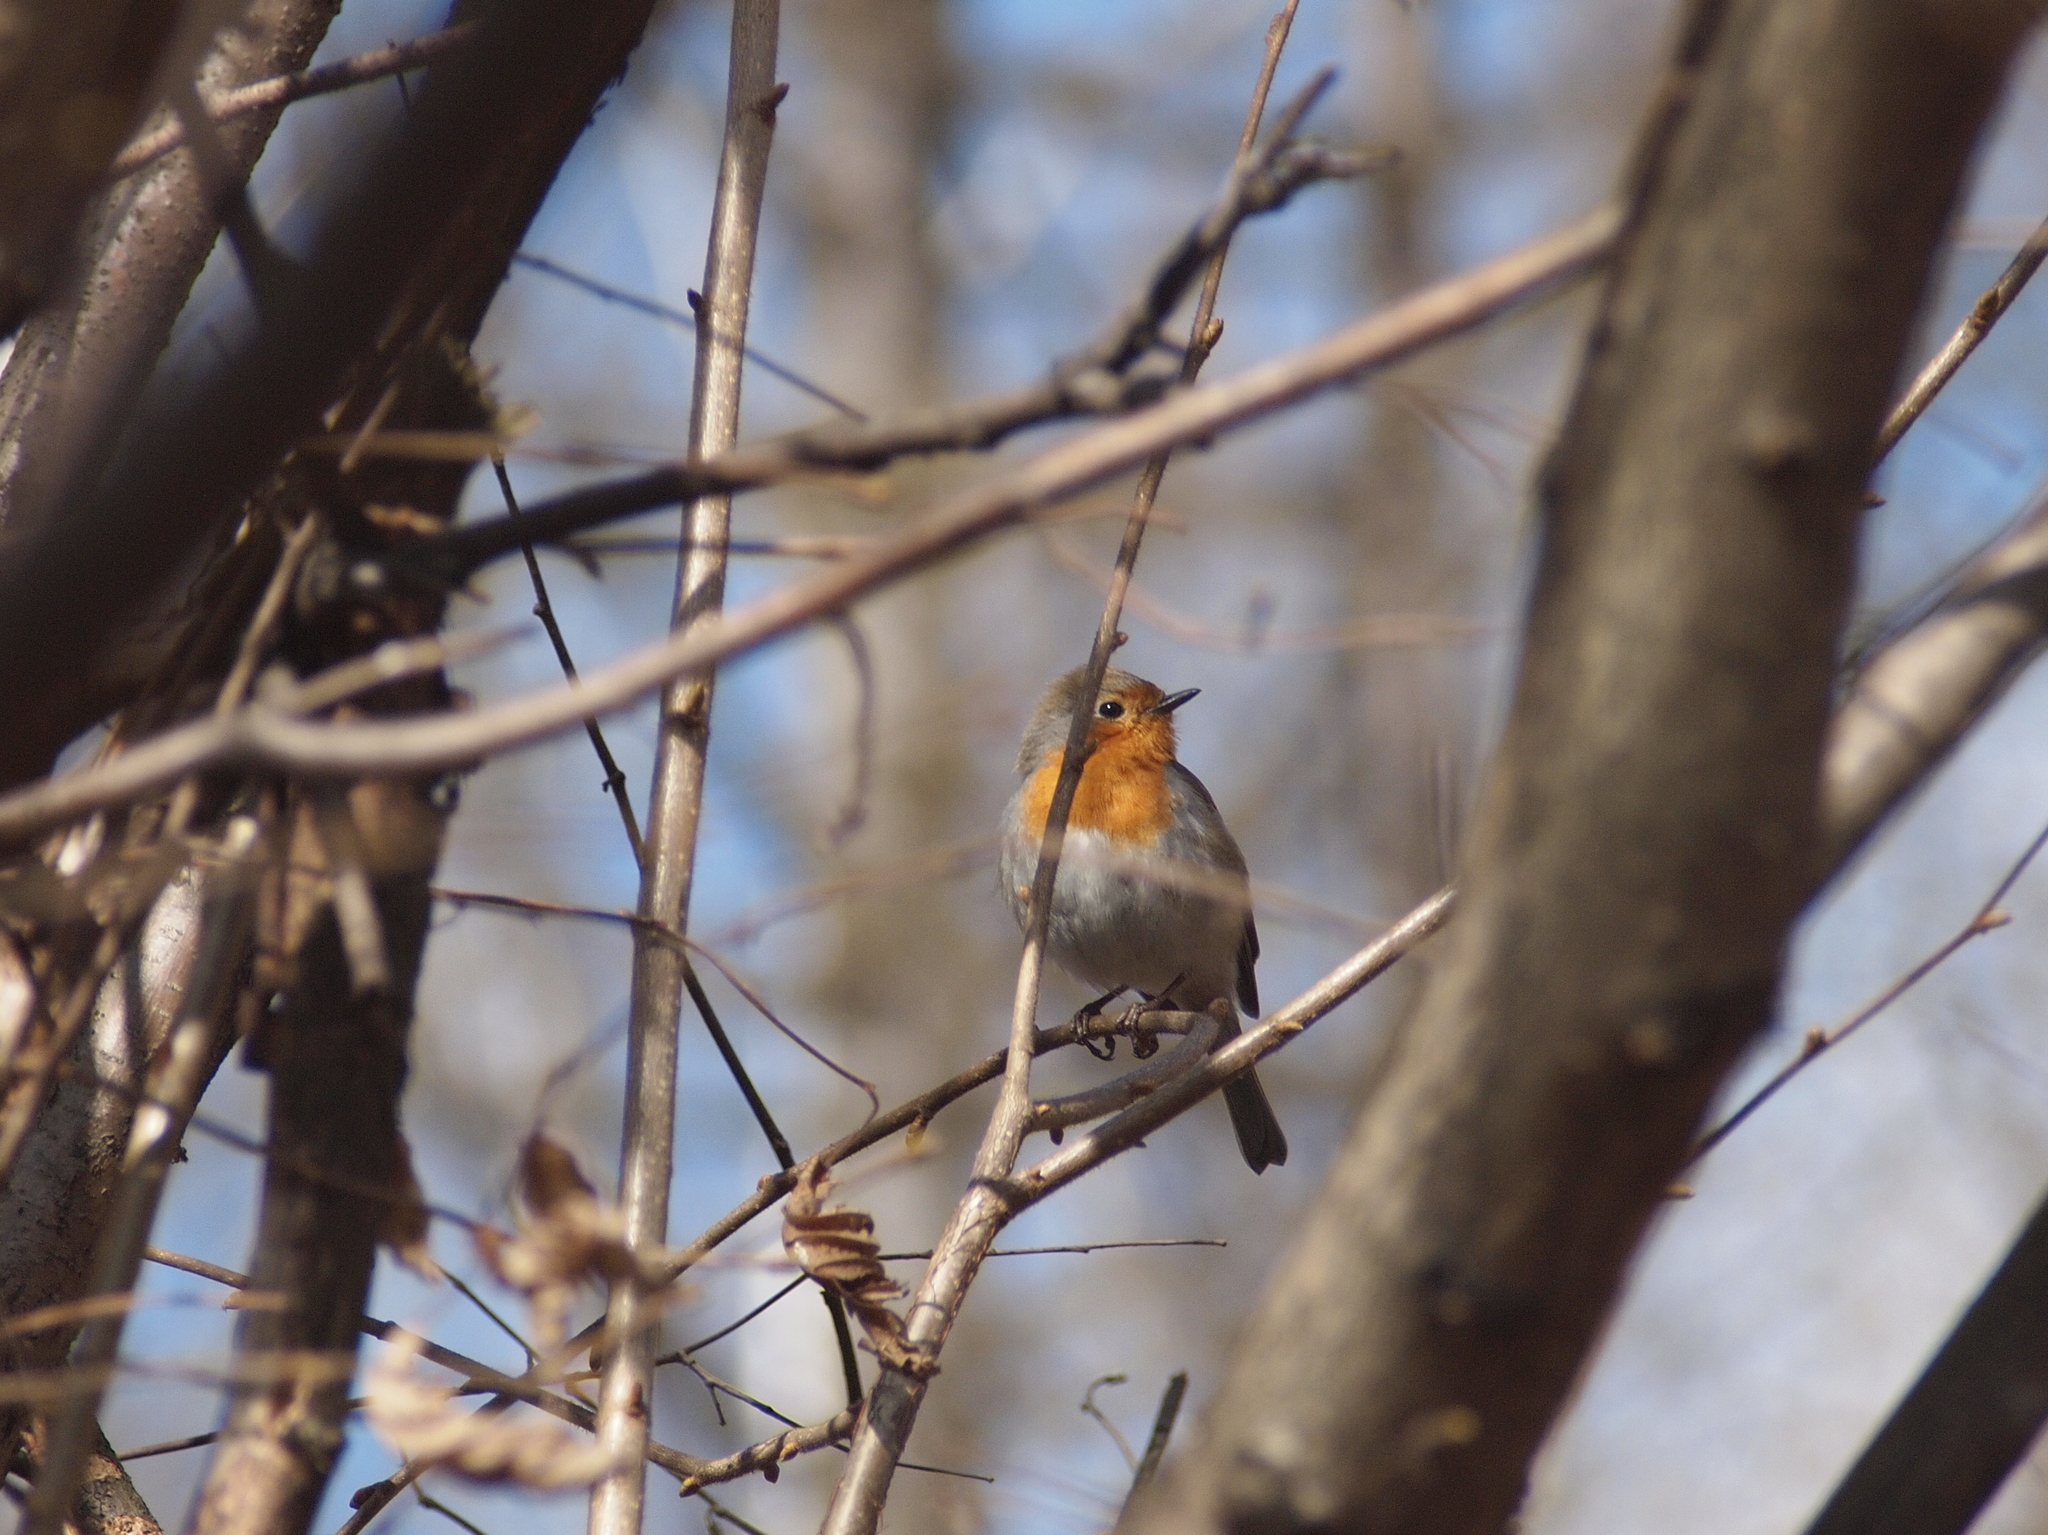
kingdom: Animalia
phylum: Chordata
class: Aves
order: Passeriformes
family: Muscicapidae
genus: Erithacus
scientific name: Erithacus rubecula
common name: European robin
